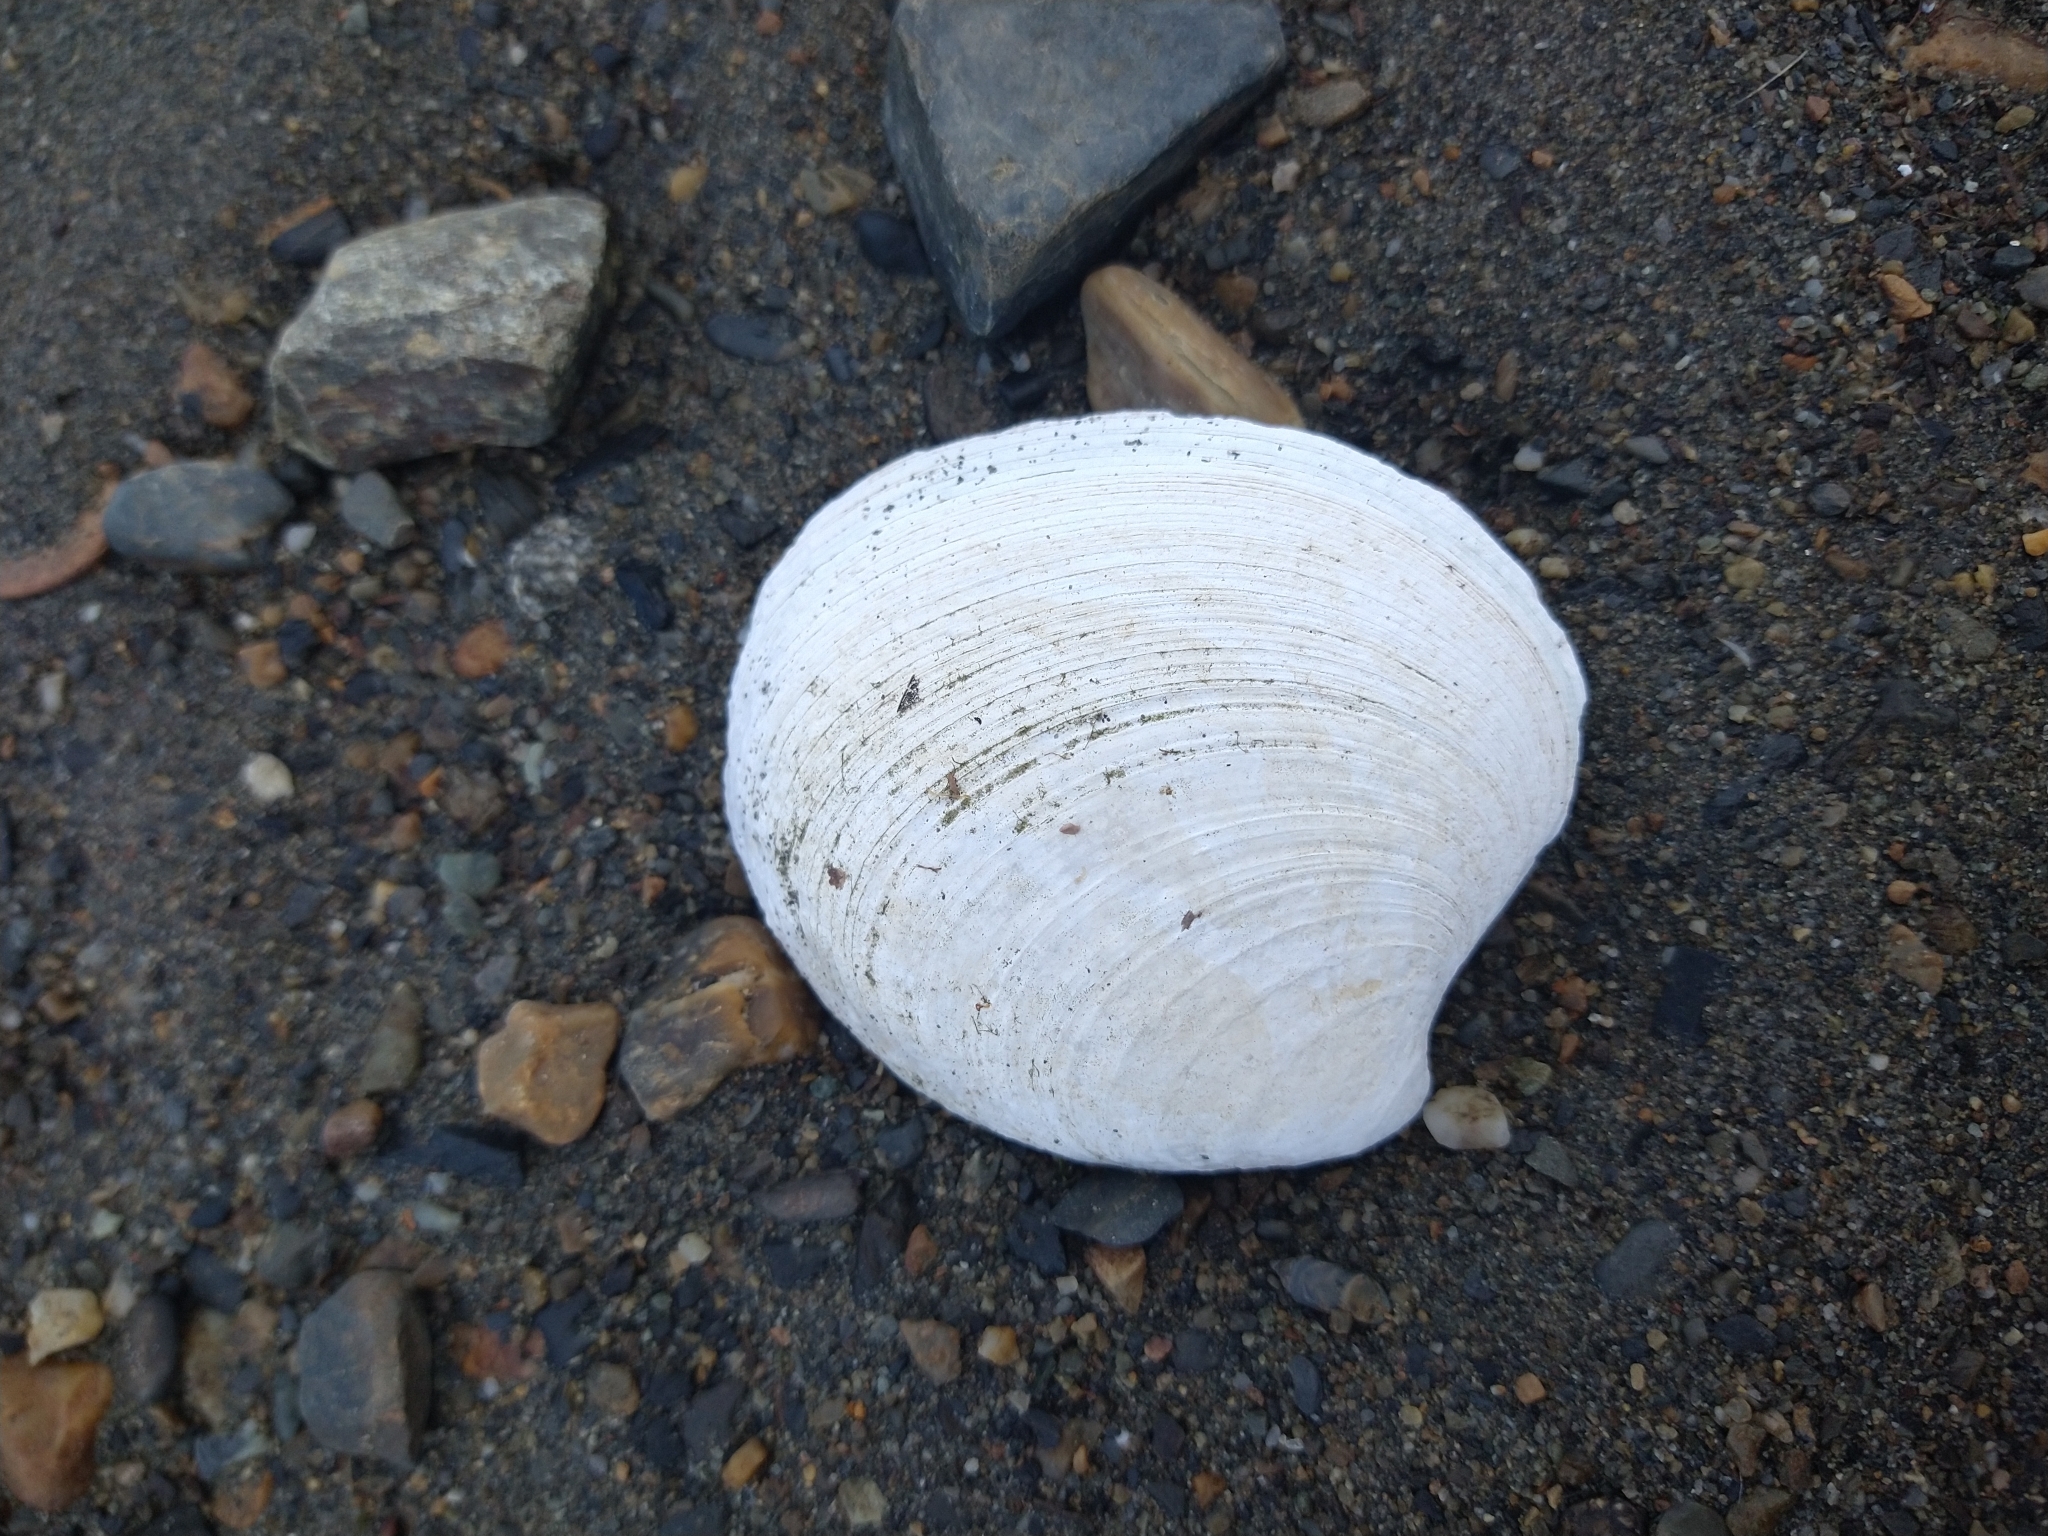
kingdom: Animalia
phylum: Mollusca
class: Bivalvia
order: Venerida
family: Veneridae
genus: Retrotapes
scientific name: Retrotapes exalbidus
